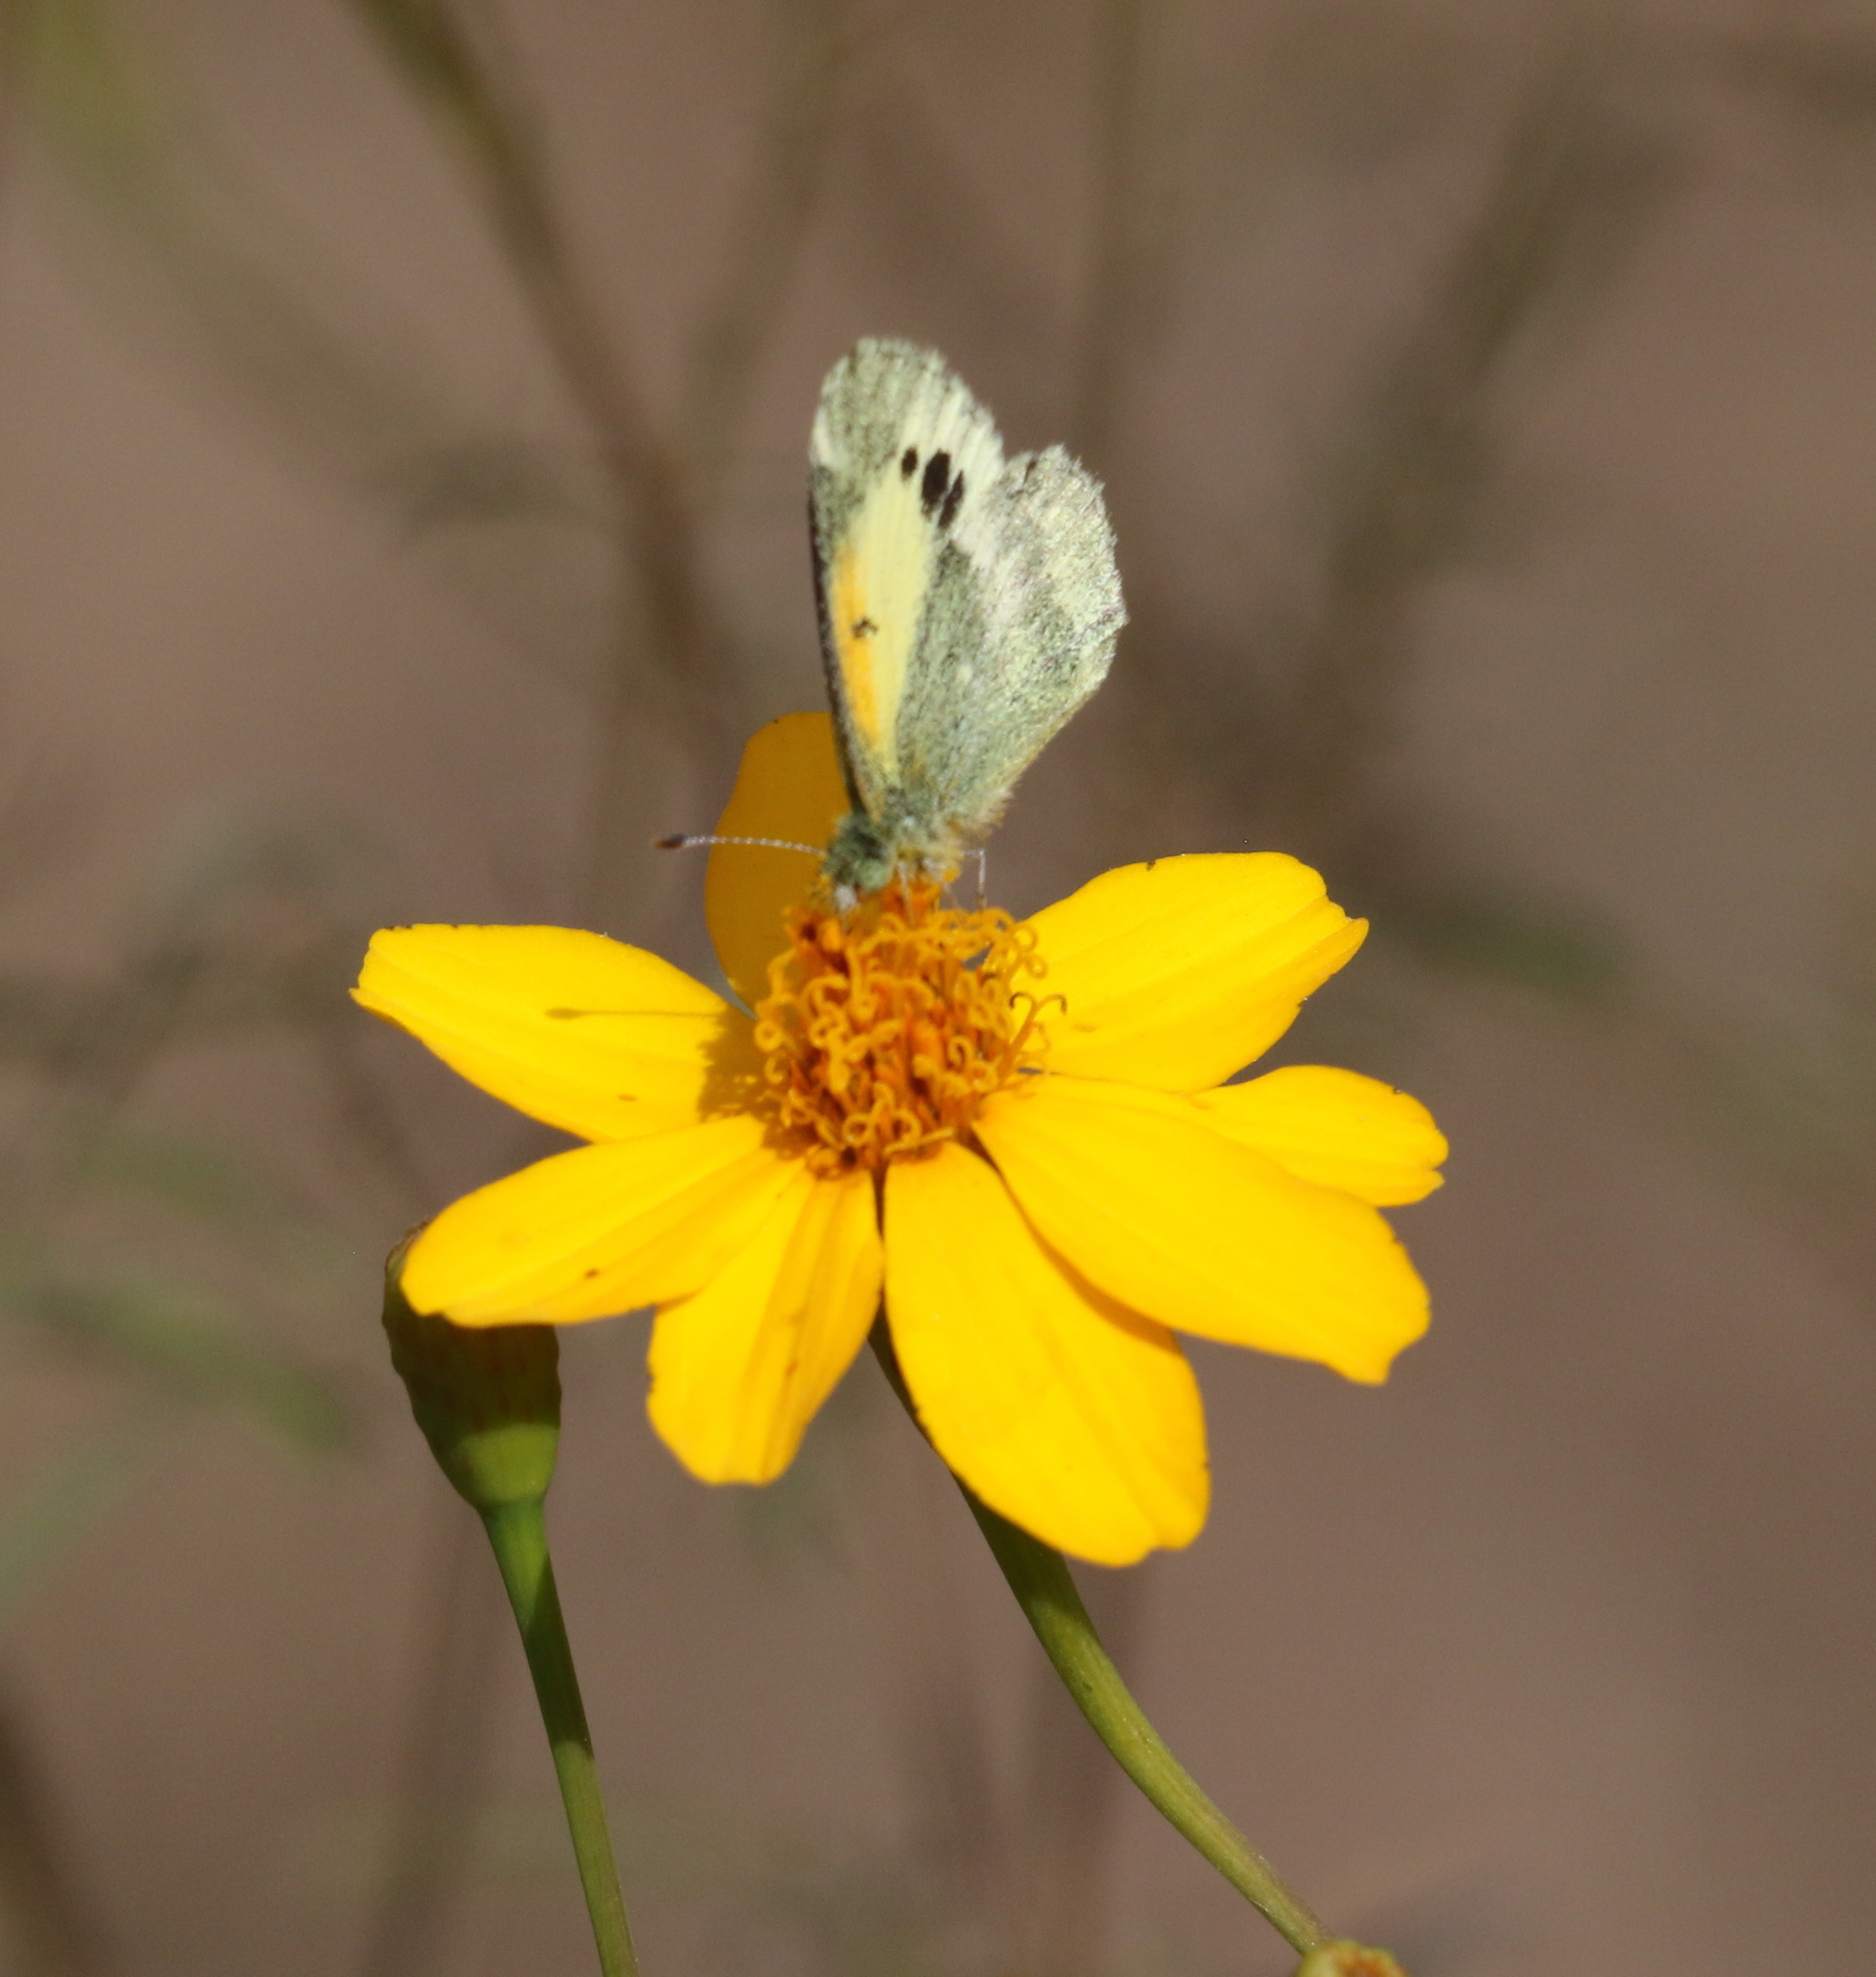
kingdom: Animalia
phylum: Arthropoda
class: Insecta
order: Lepidoptera
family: Pieridae
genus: Nathalis
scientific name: Nathalis iole
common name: Dainty sulphur
